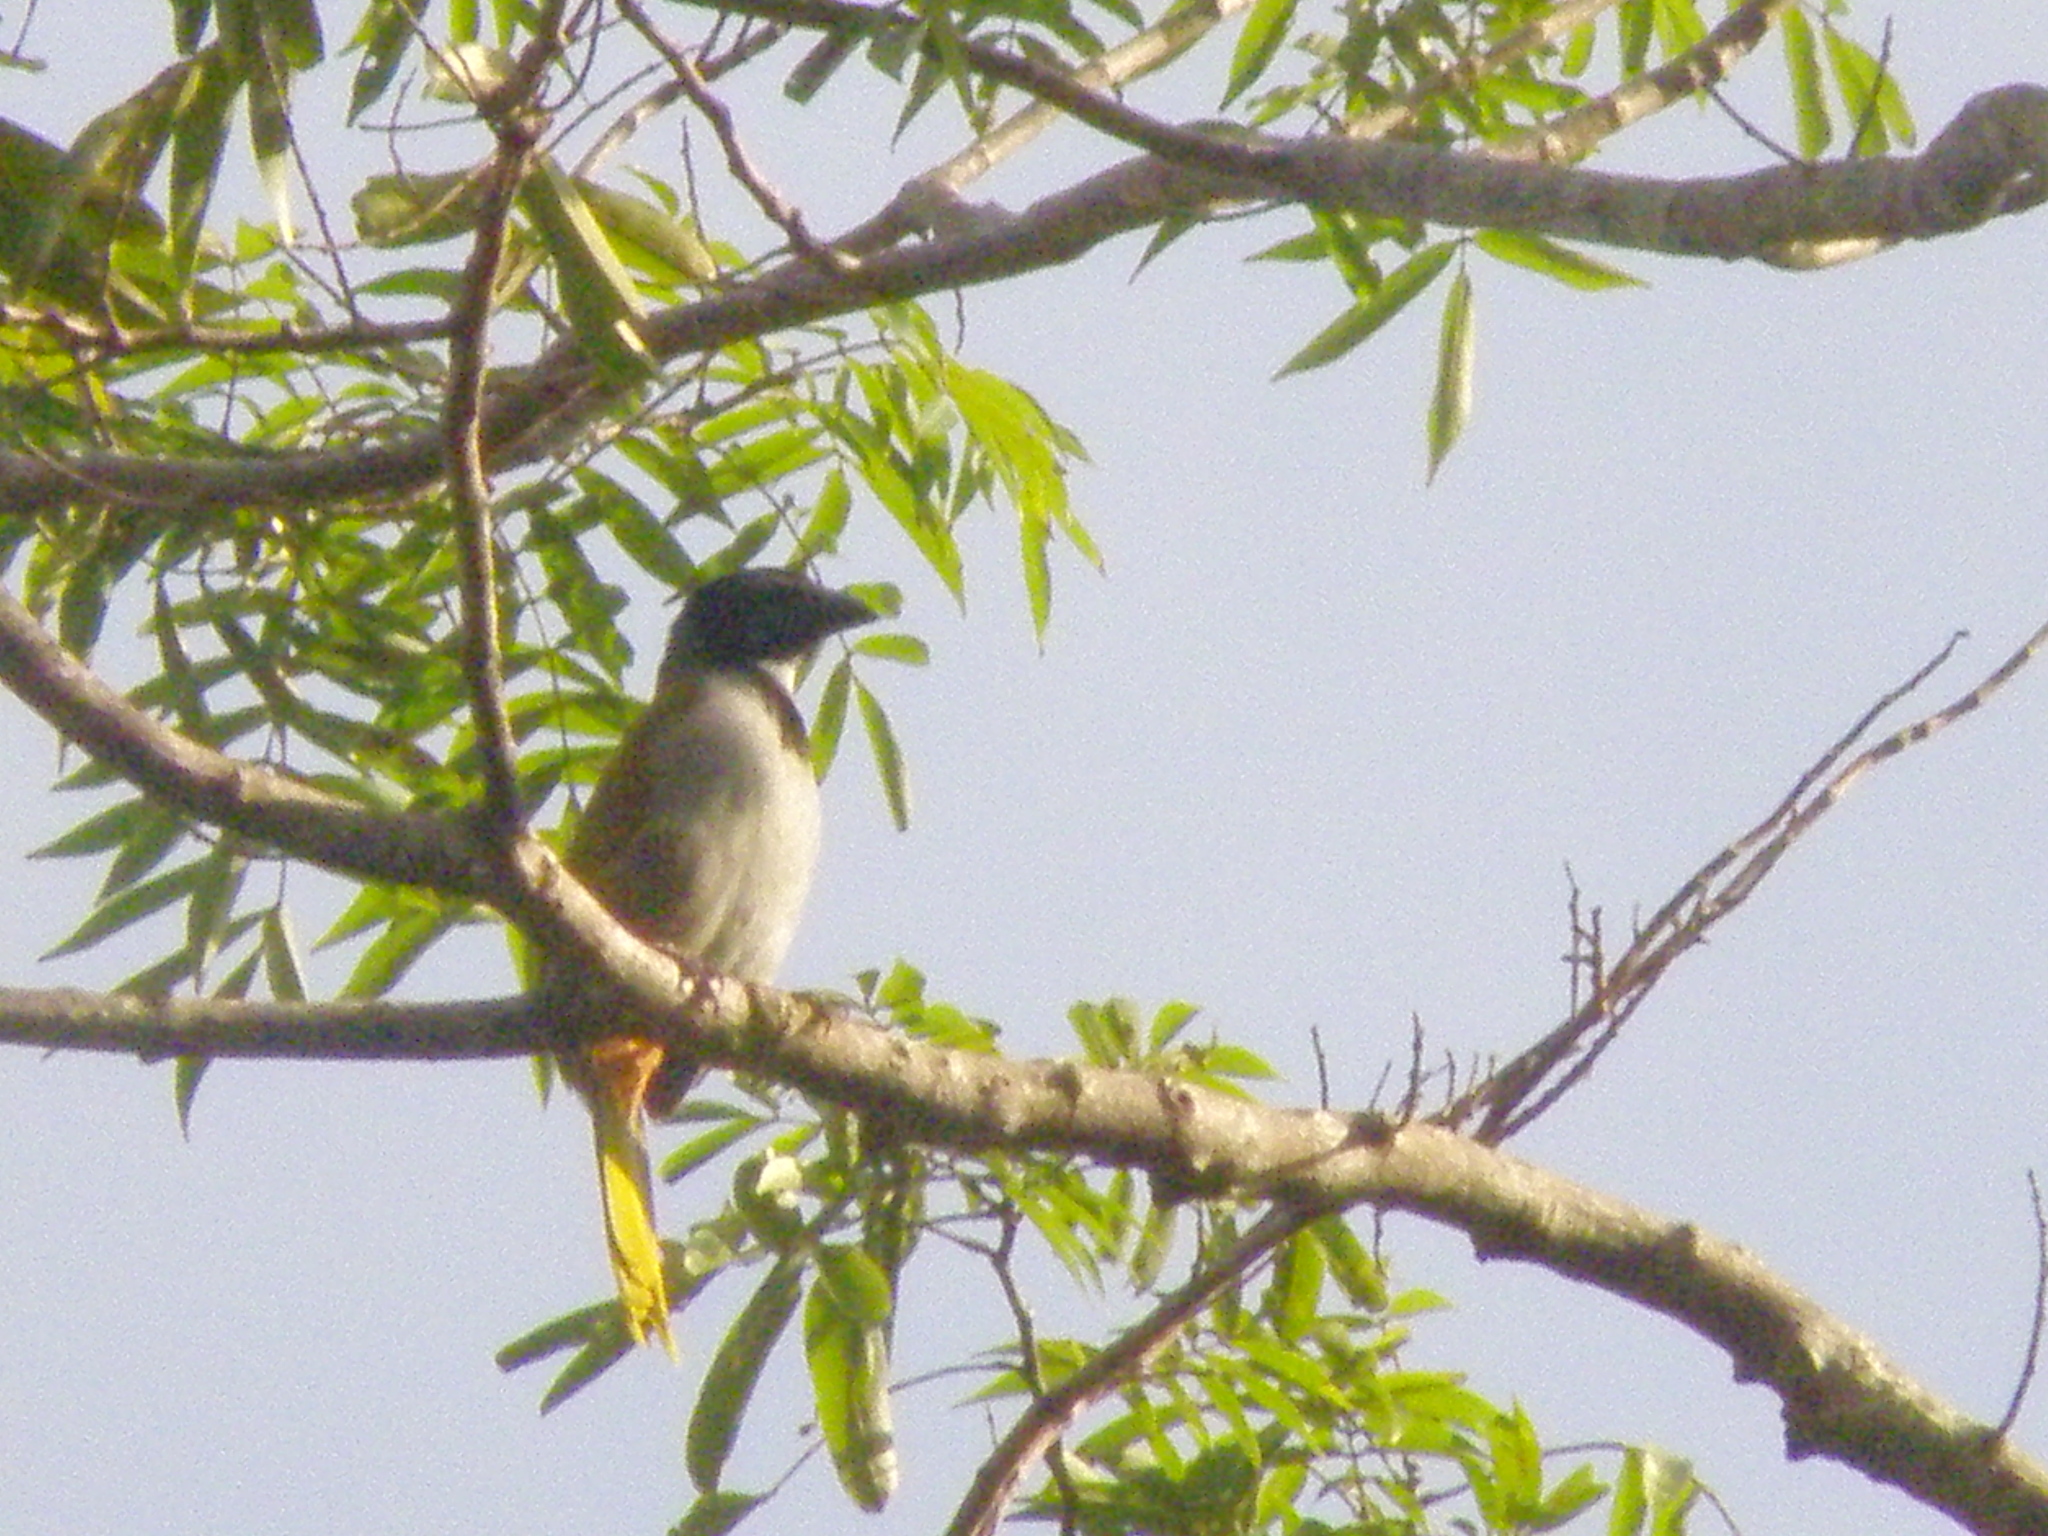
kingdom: Animalia
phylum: Chordata
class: Aves
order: Passeriformes
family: Thraupidae
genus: Saltator
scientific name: Saltator atriceps
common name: Black-headed saltator
